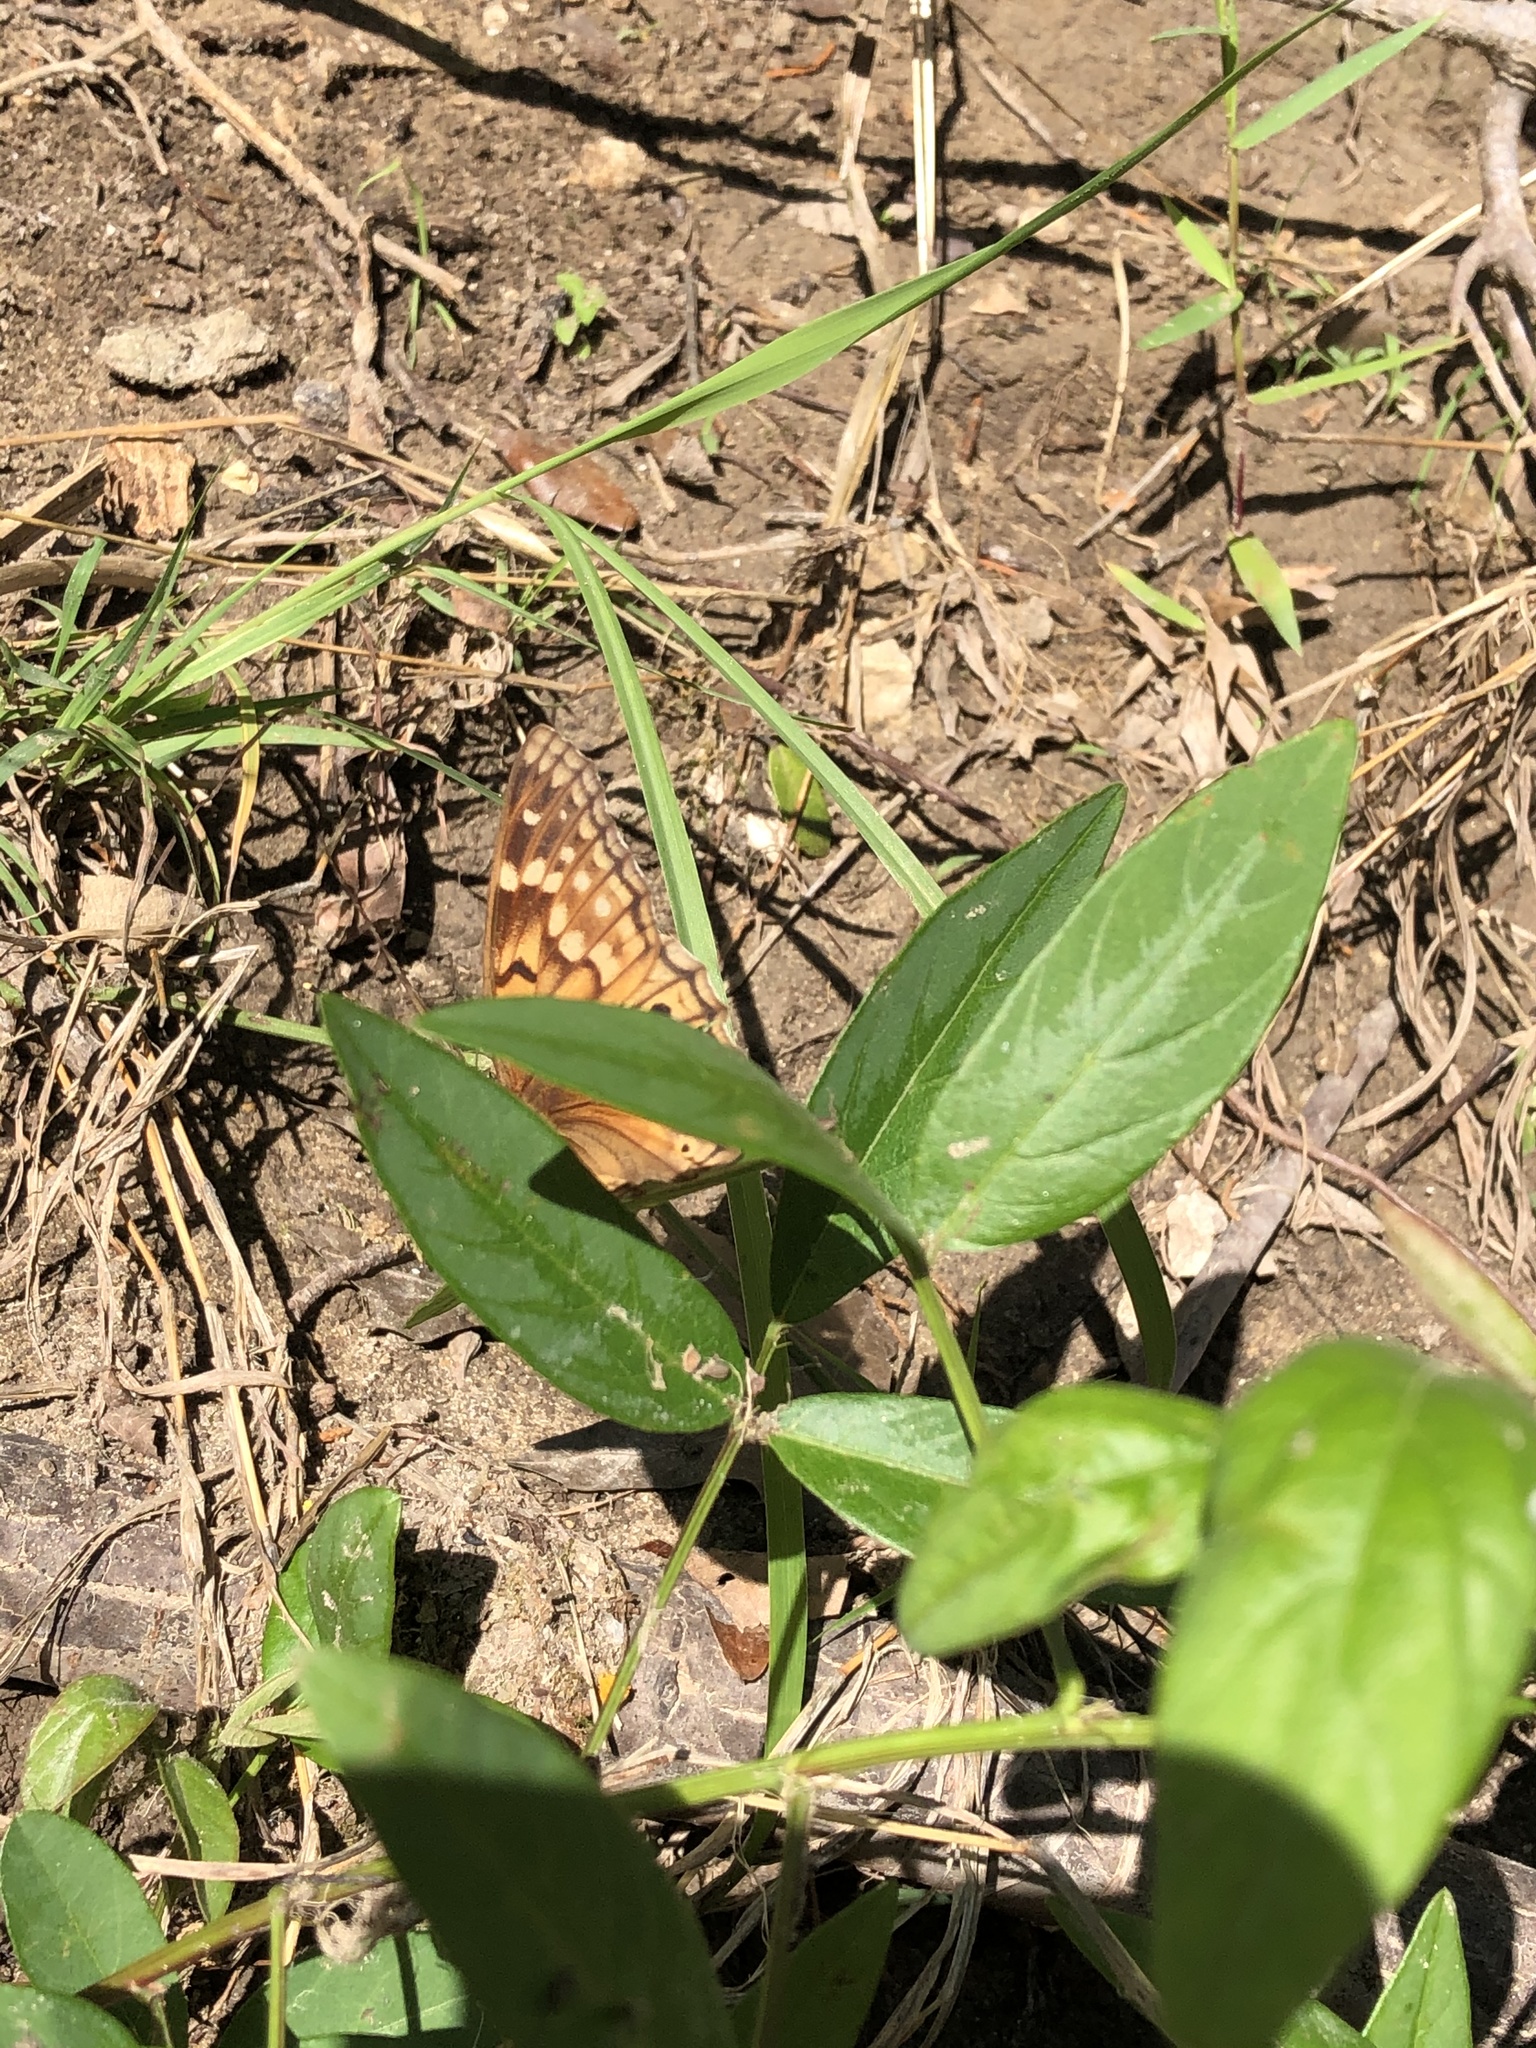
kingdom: Animalia
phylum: Arthropoda
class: Insecta
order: Lepidoptera
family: Nymphalidae
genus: Asterocampa
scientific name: Asterocampa clyton
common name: Tawny emperor
